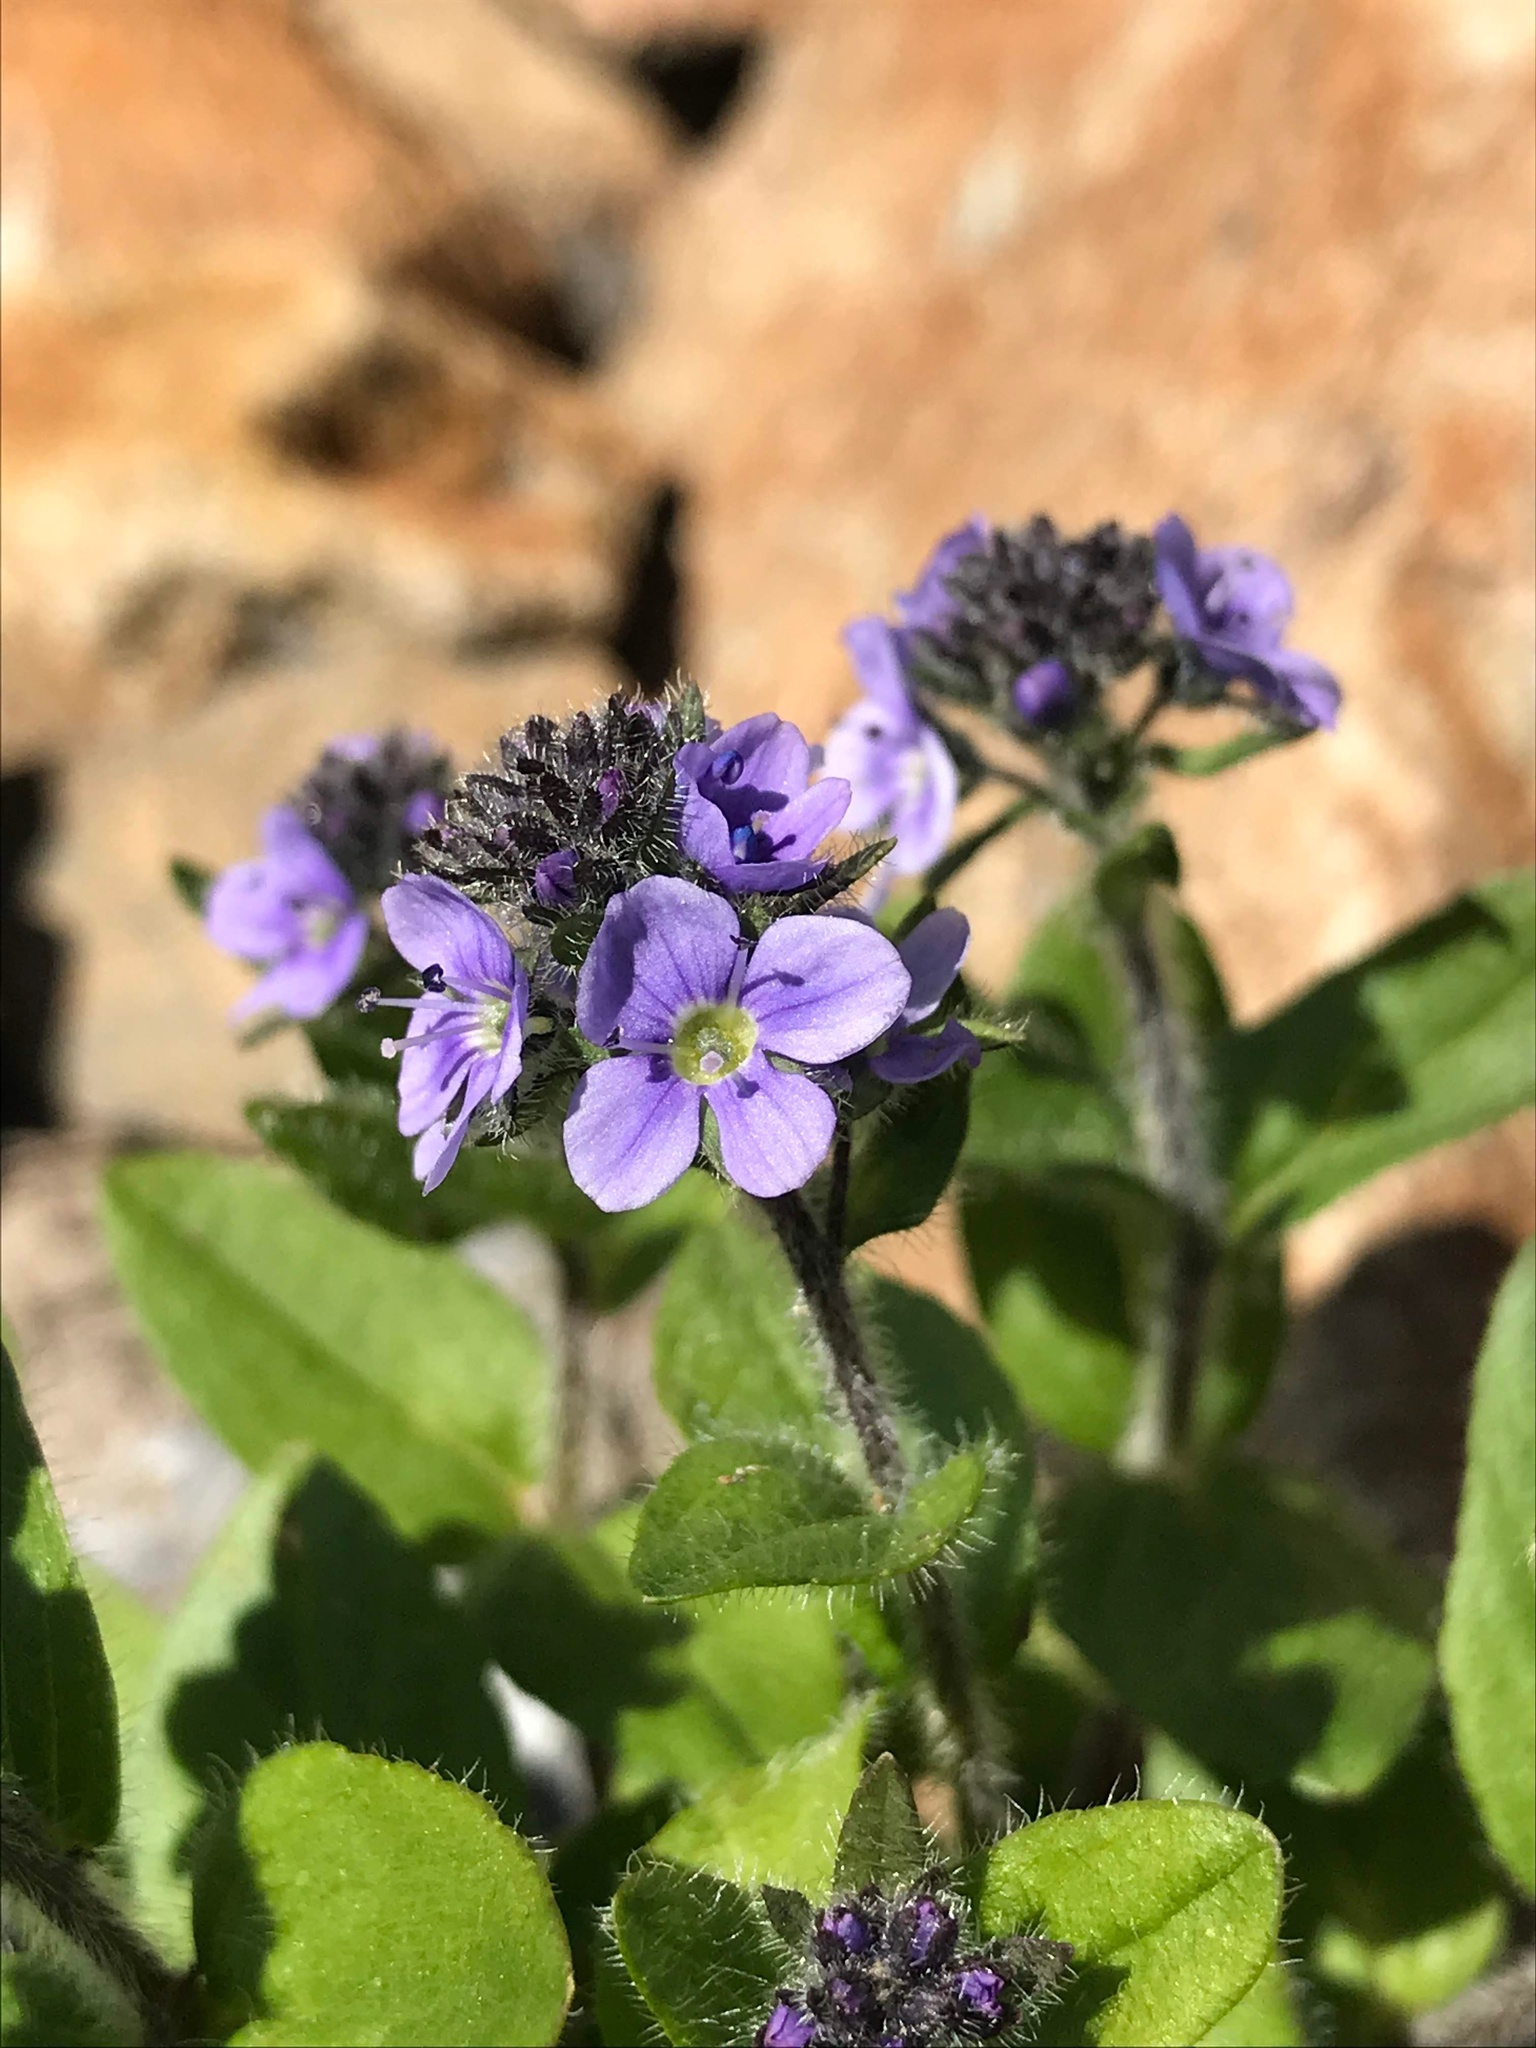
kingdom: Plantae
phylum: Tracheophyta
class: Magnoliopsida
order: Lamiales
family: Plantaginaceae
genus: Veronica
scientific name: Veronica wormskjoldii
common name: American alpine speedwell
